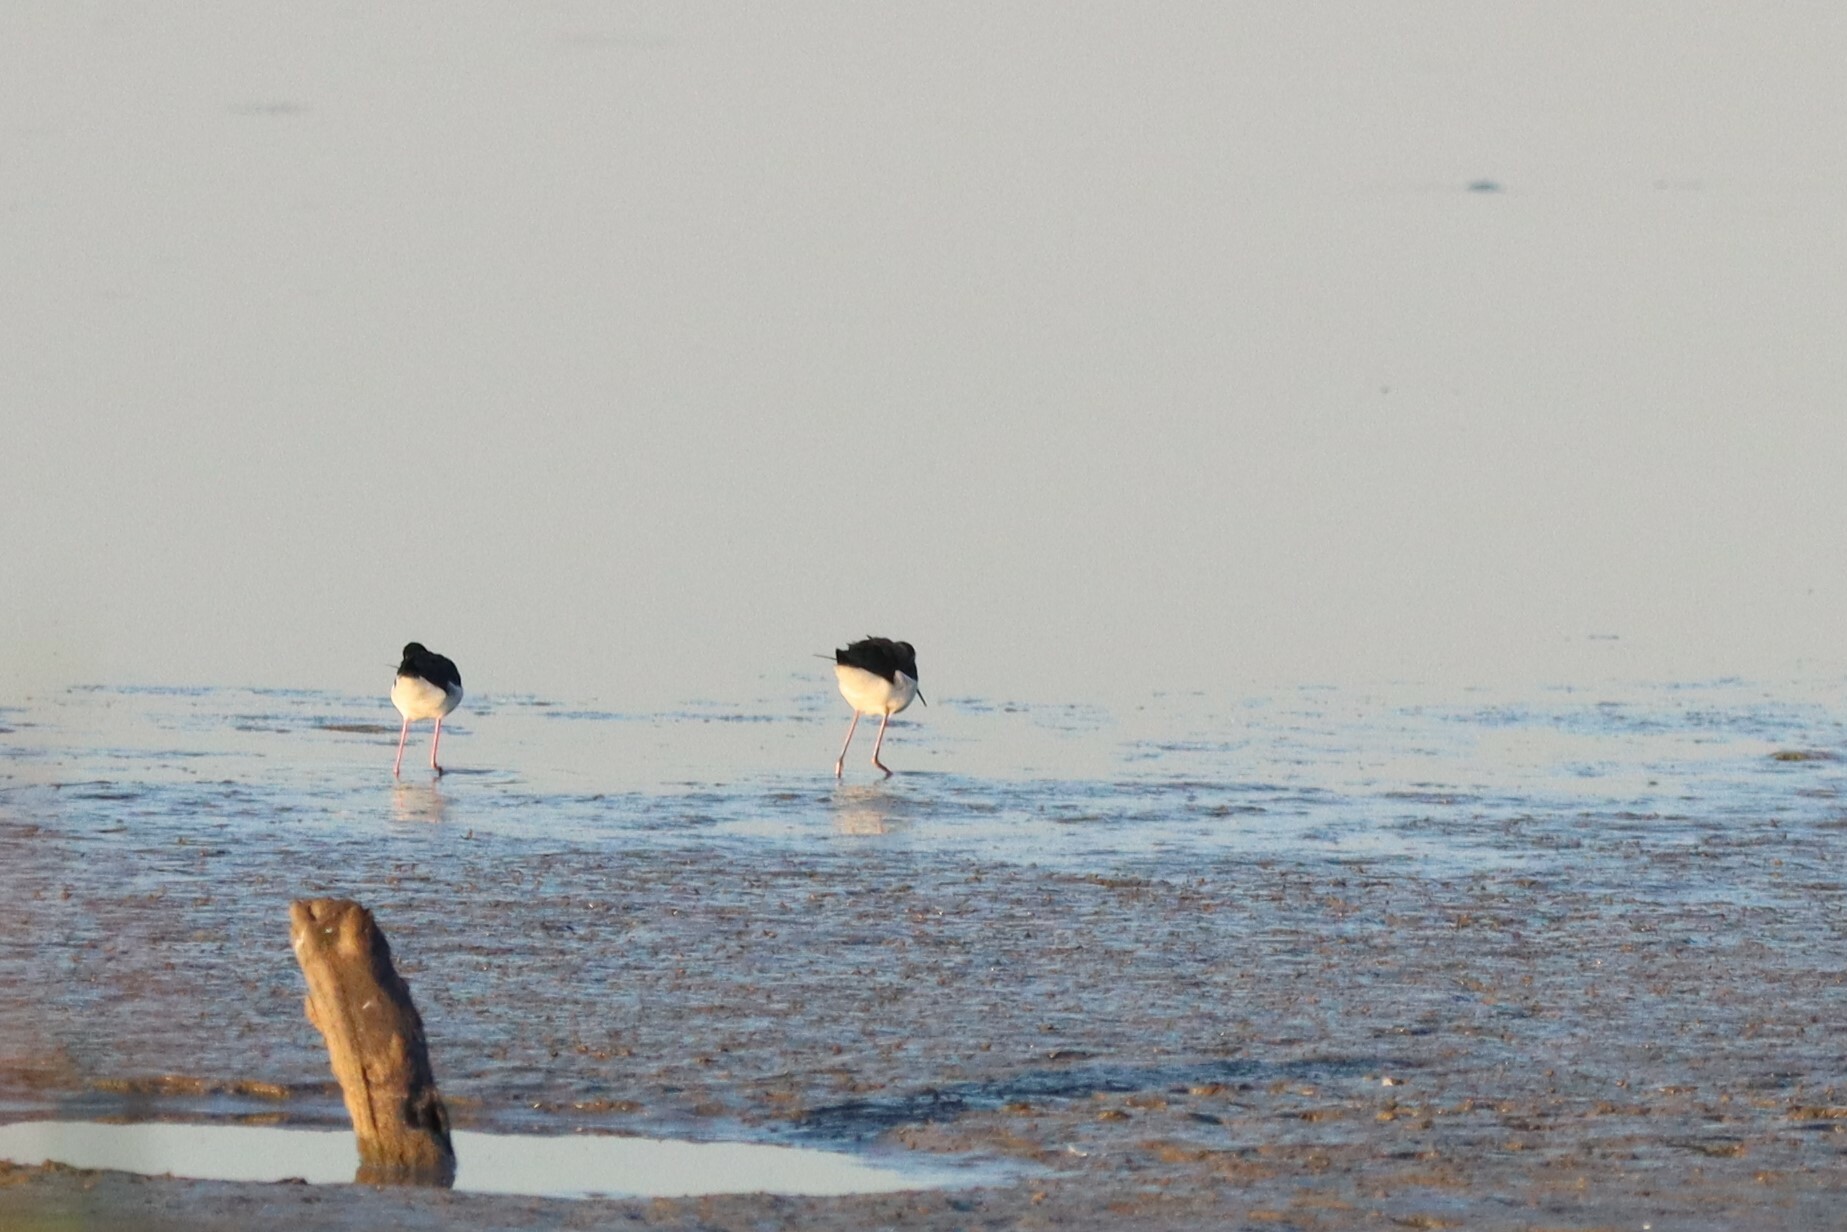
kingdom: Animalia
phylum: Chordata
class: Aves
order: Charadriiformes
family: Recurvirostridae
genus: Himantopus
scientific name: Himantopus mexicanus
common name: Black-necked stilt
